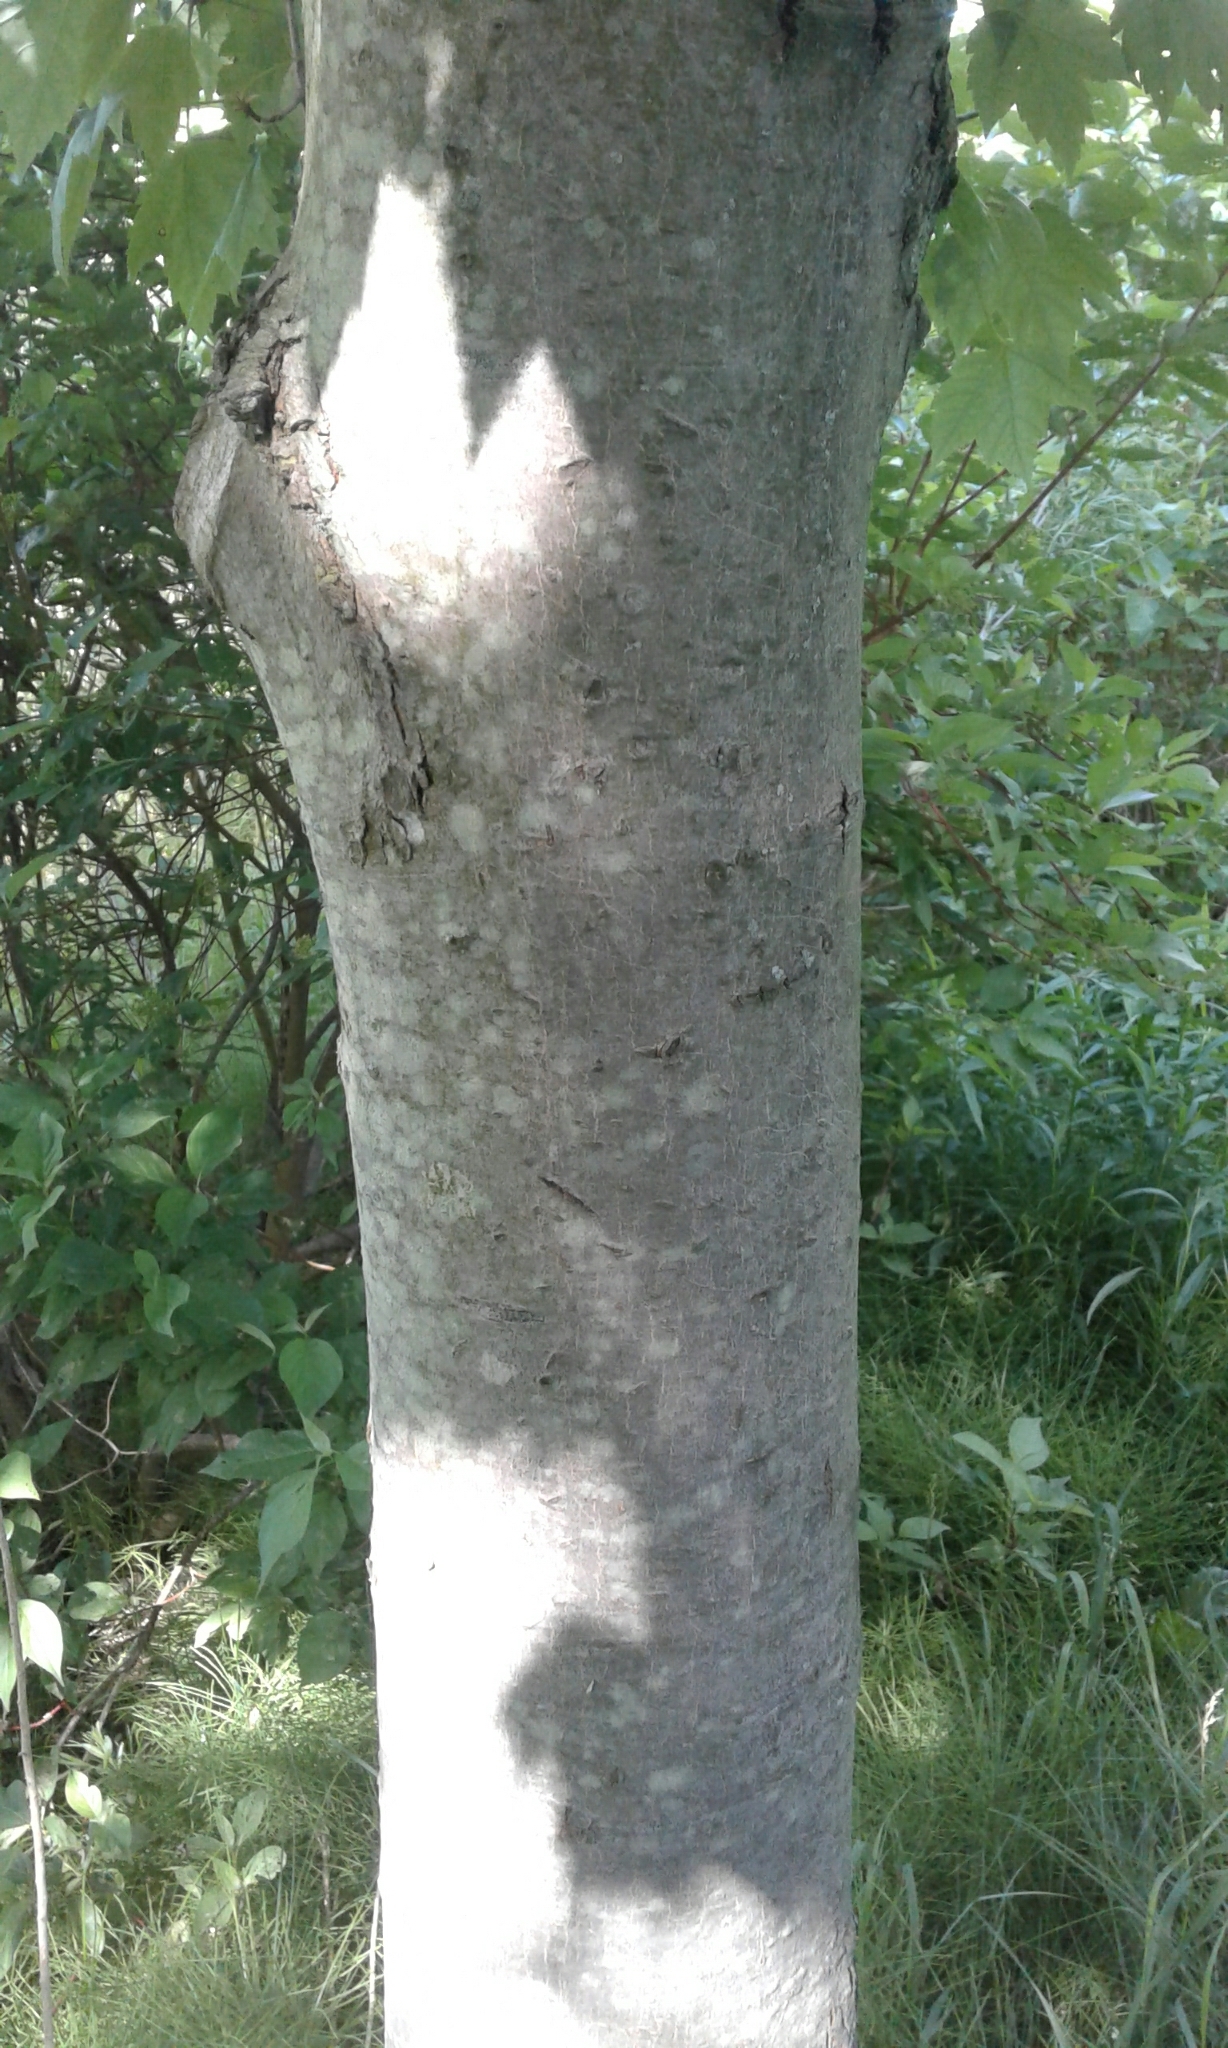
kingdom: Plantae
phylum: Tracheophyta
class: Magnoliopsida
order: Sapindales
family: Sapindaceae
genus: Acer
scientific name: Acer rubrum
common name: Red maple
